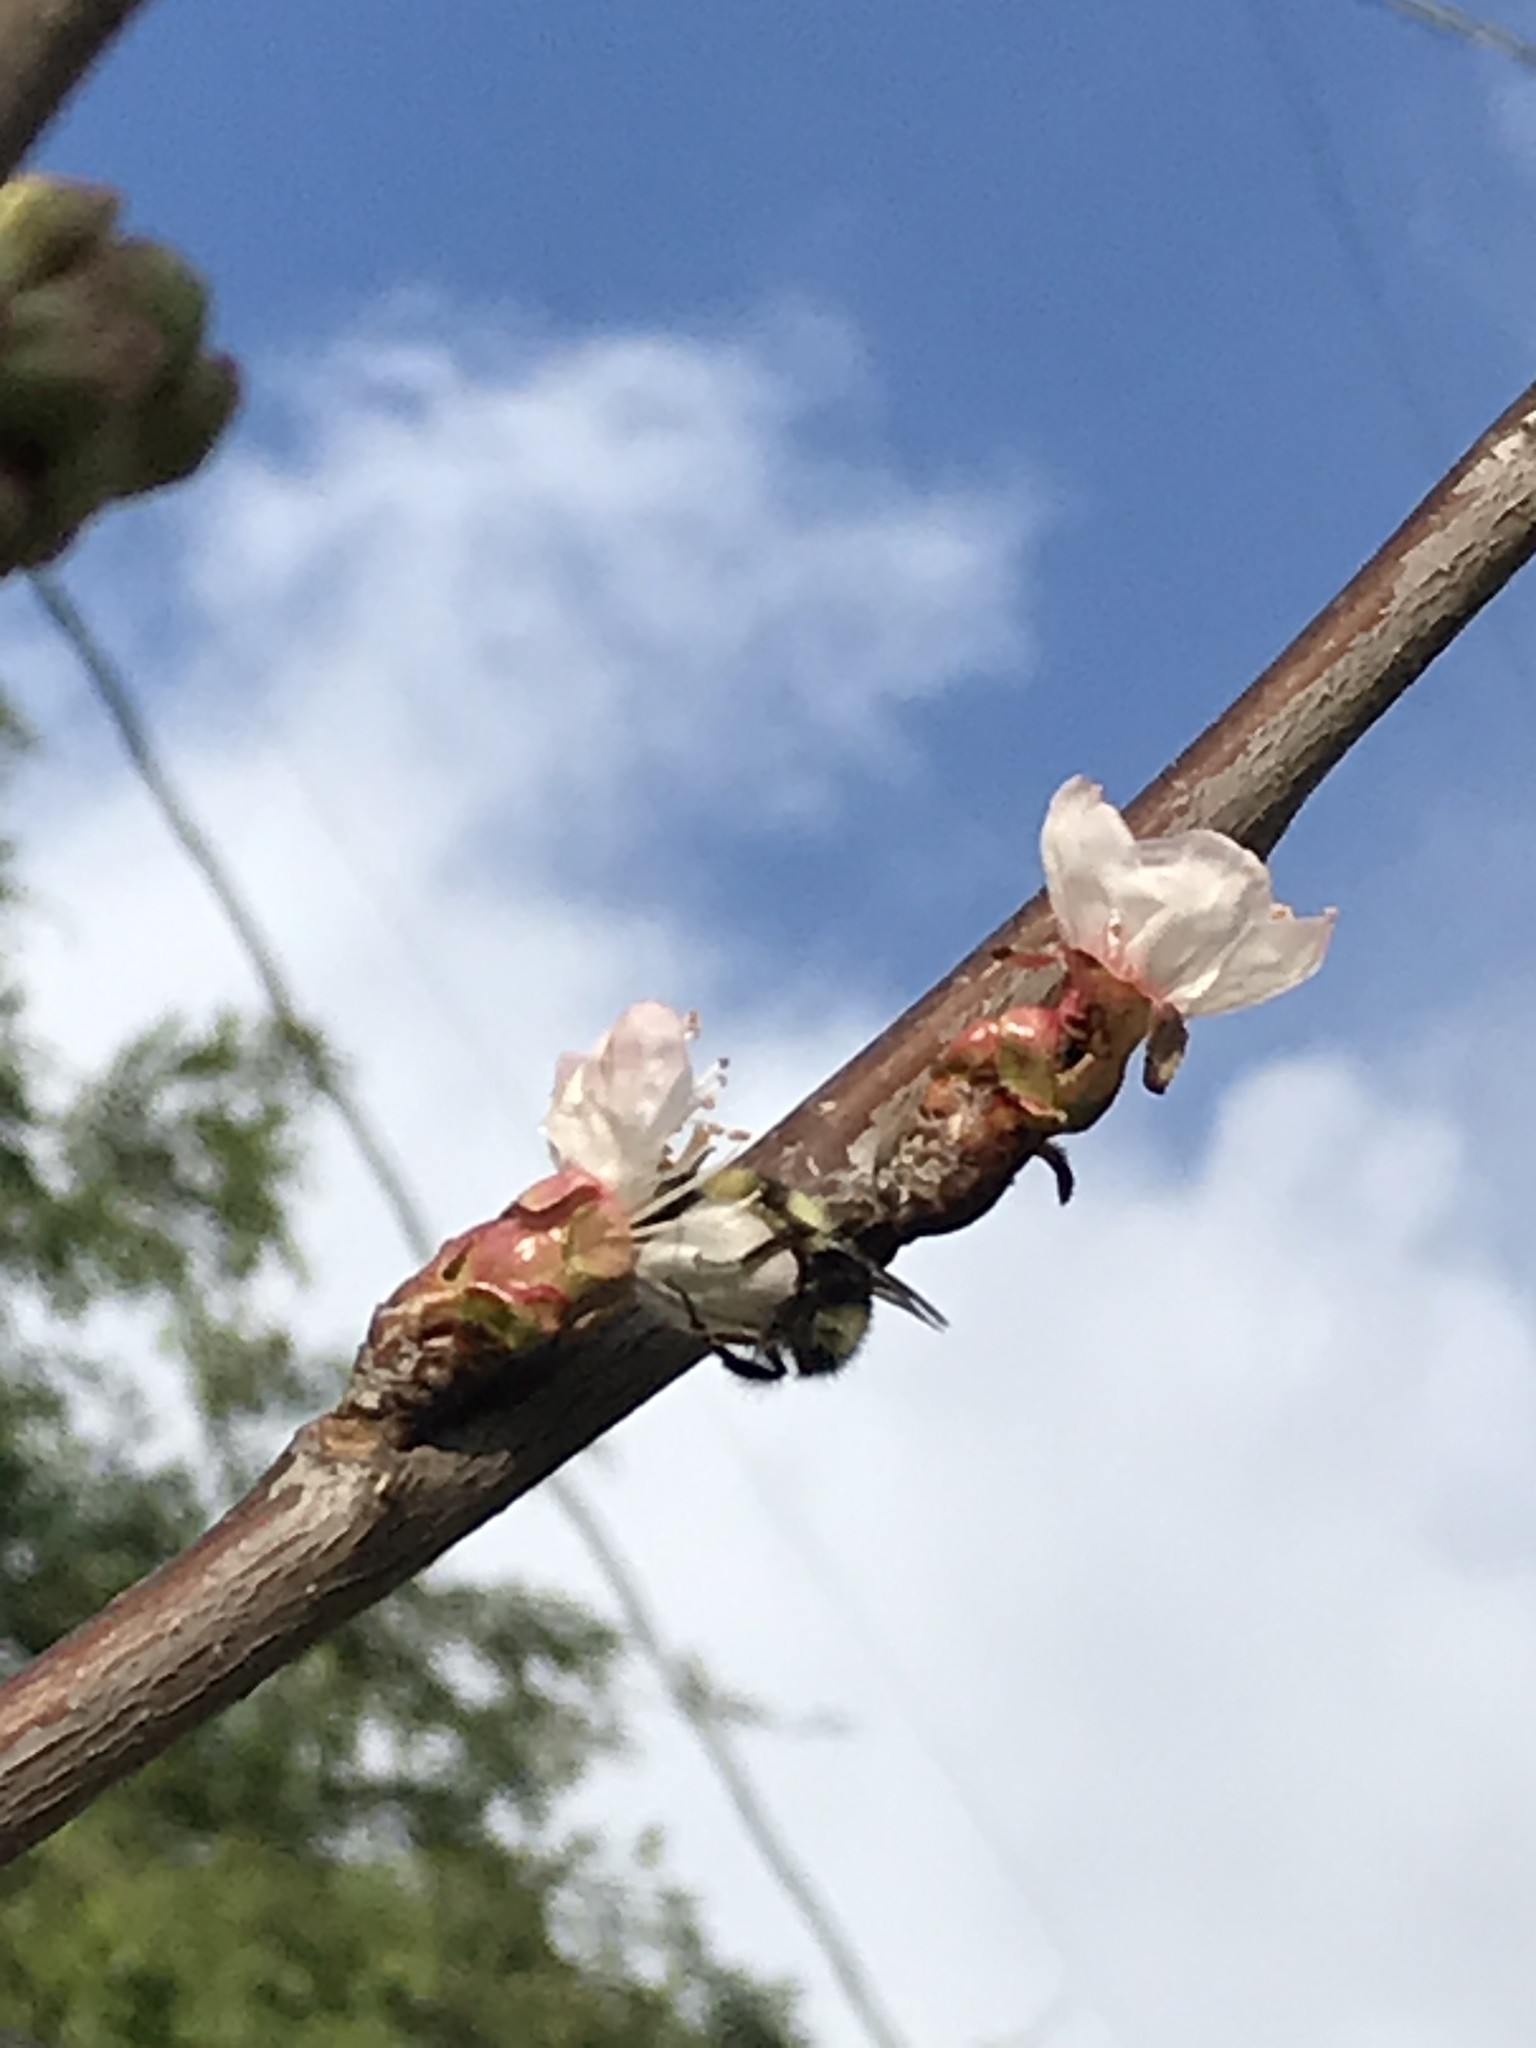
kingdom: Animalia
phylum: Arthropoda
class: Insecta
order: Hymenoptera
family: Apidae
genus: Bombus
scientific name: Bombus melanopygus
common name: Black tail bumble bee
